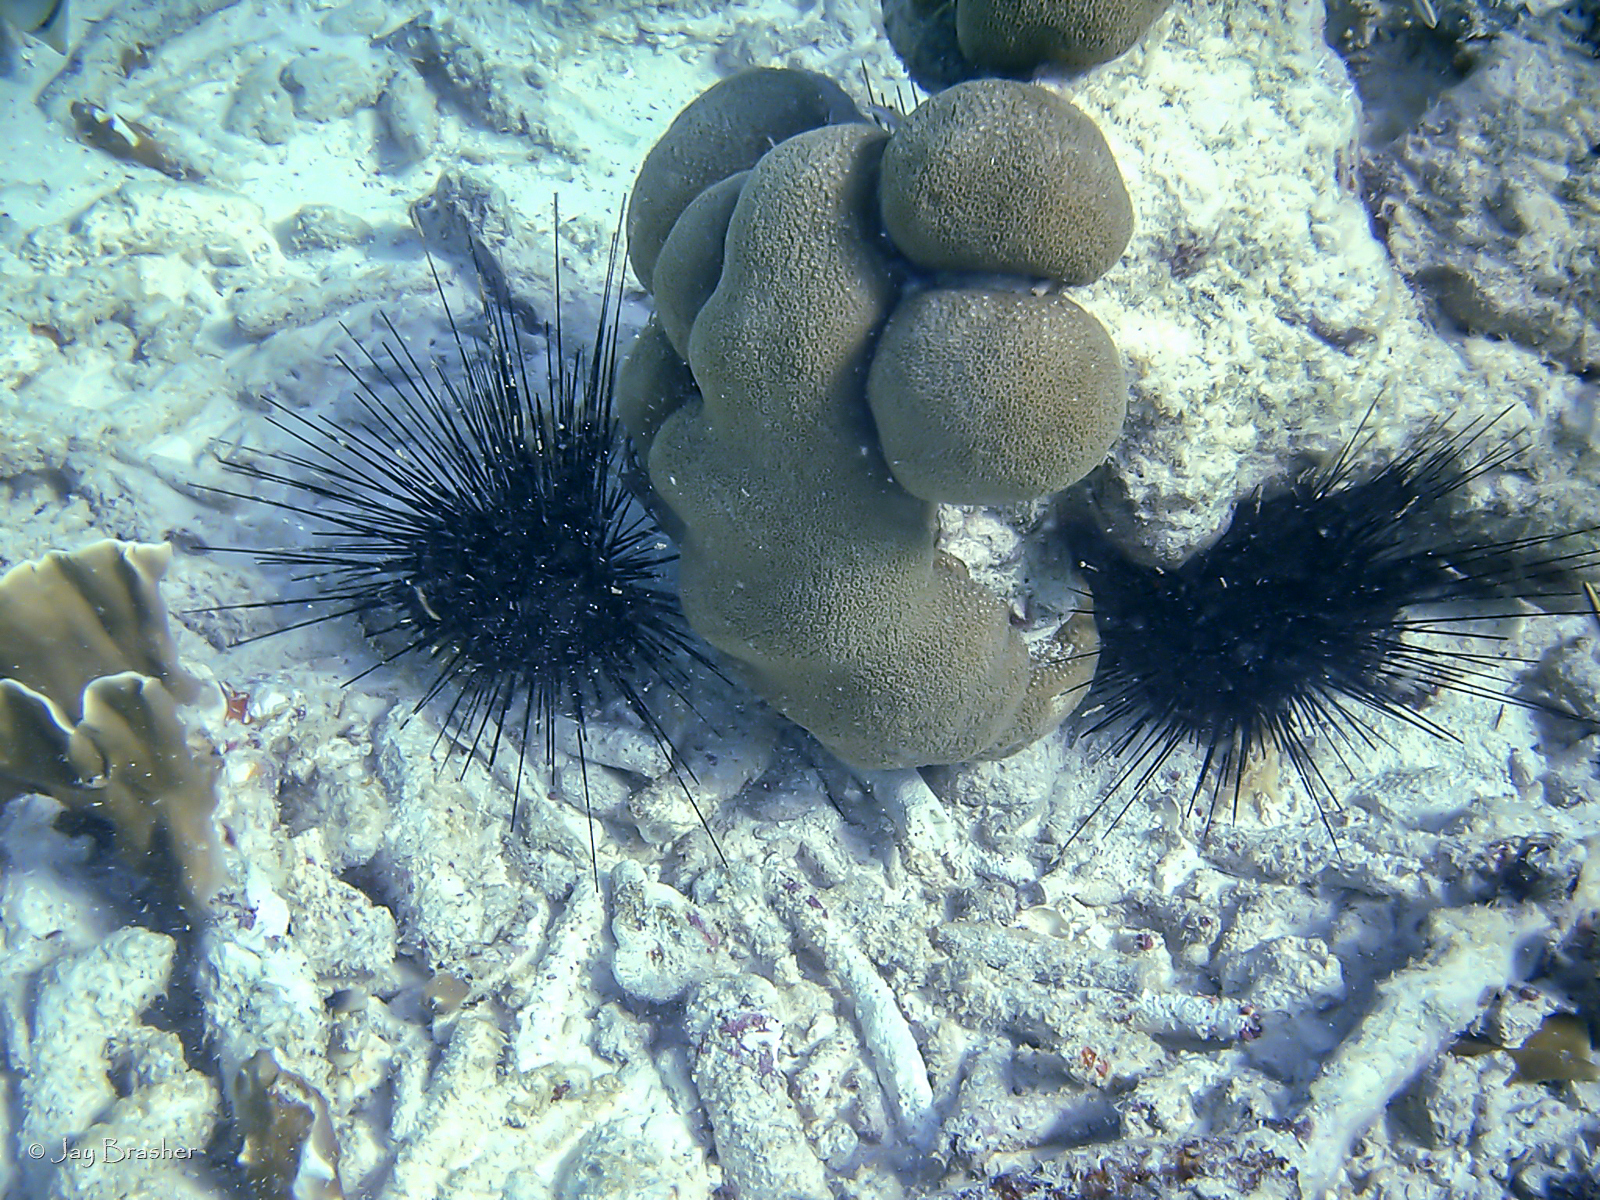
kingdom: Animalia
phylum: Echinodermata
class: Echinoidea
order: Diadematoida
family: Diadematidae
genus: Diadema
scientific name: Diadema antillarum
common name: Spiny urchin
